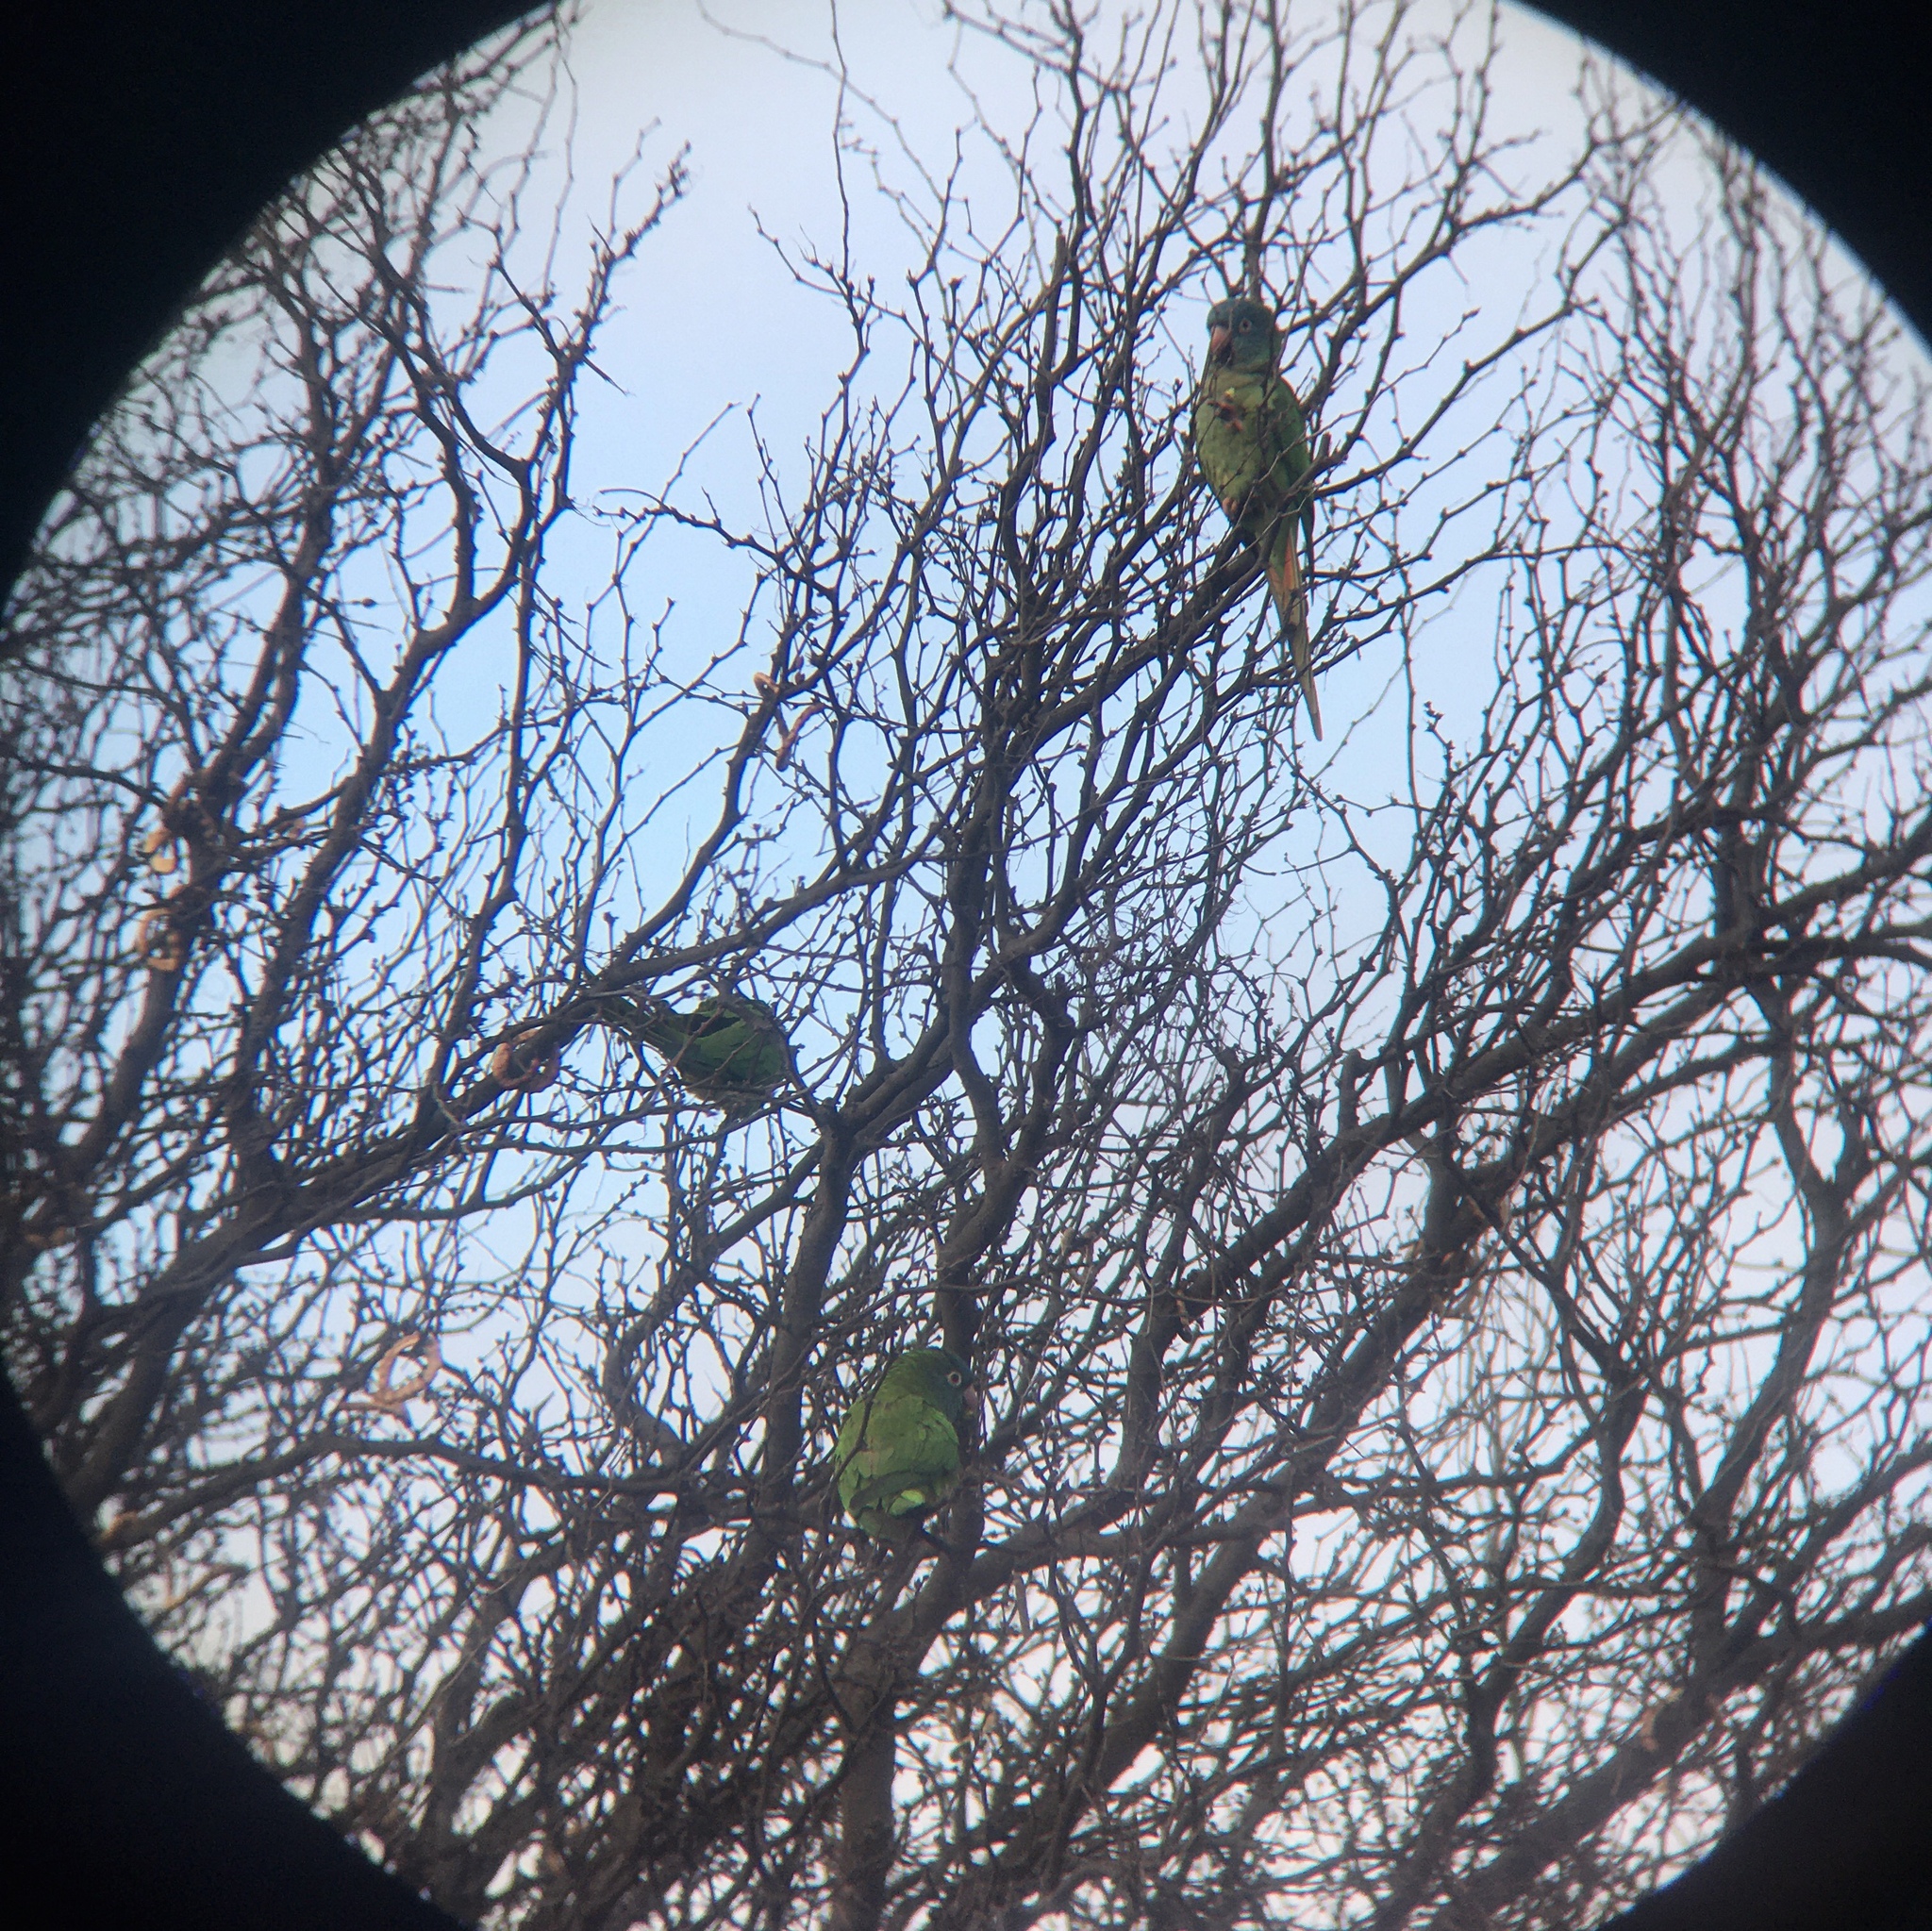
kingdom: Animalia
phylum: Chordata
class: Aves
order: Psittaciformes
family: Psittacidae
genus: Aratinga
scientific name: Aratinga acuticaudata
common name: Blue-crowned parakeet
